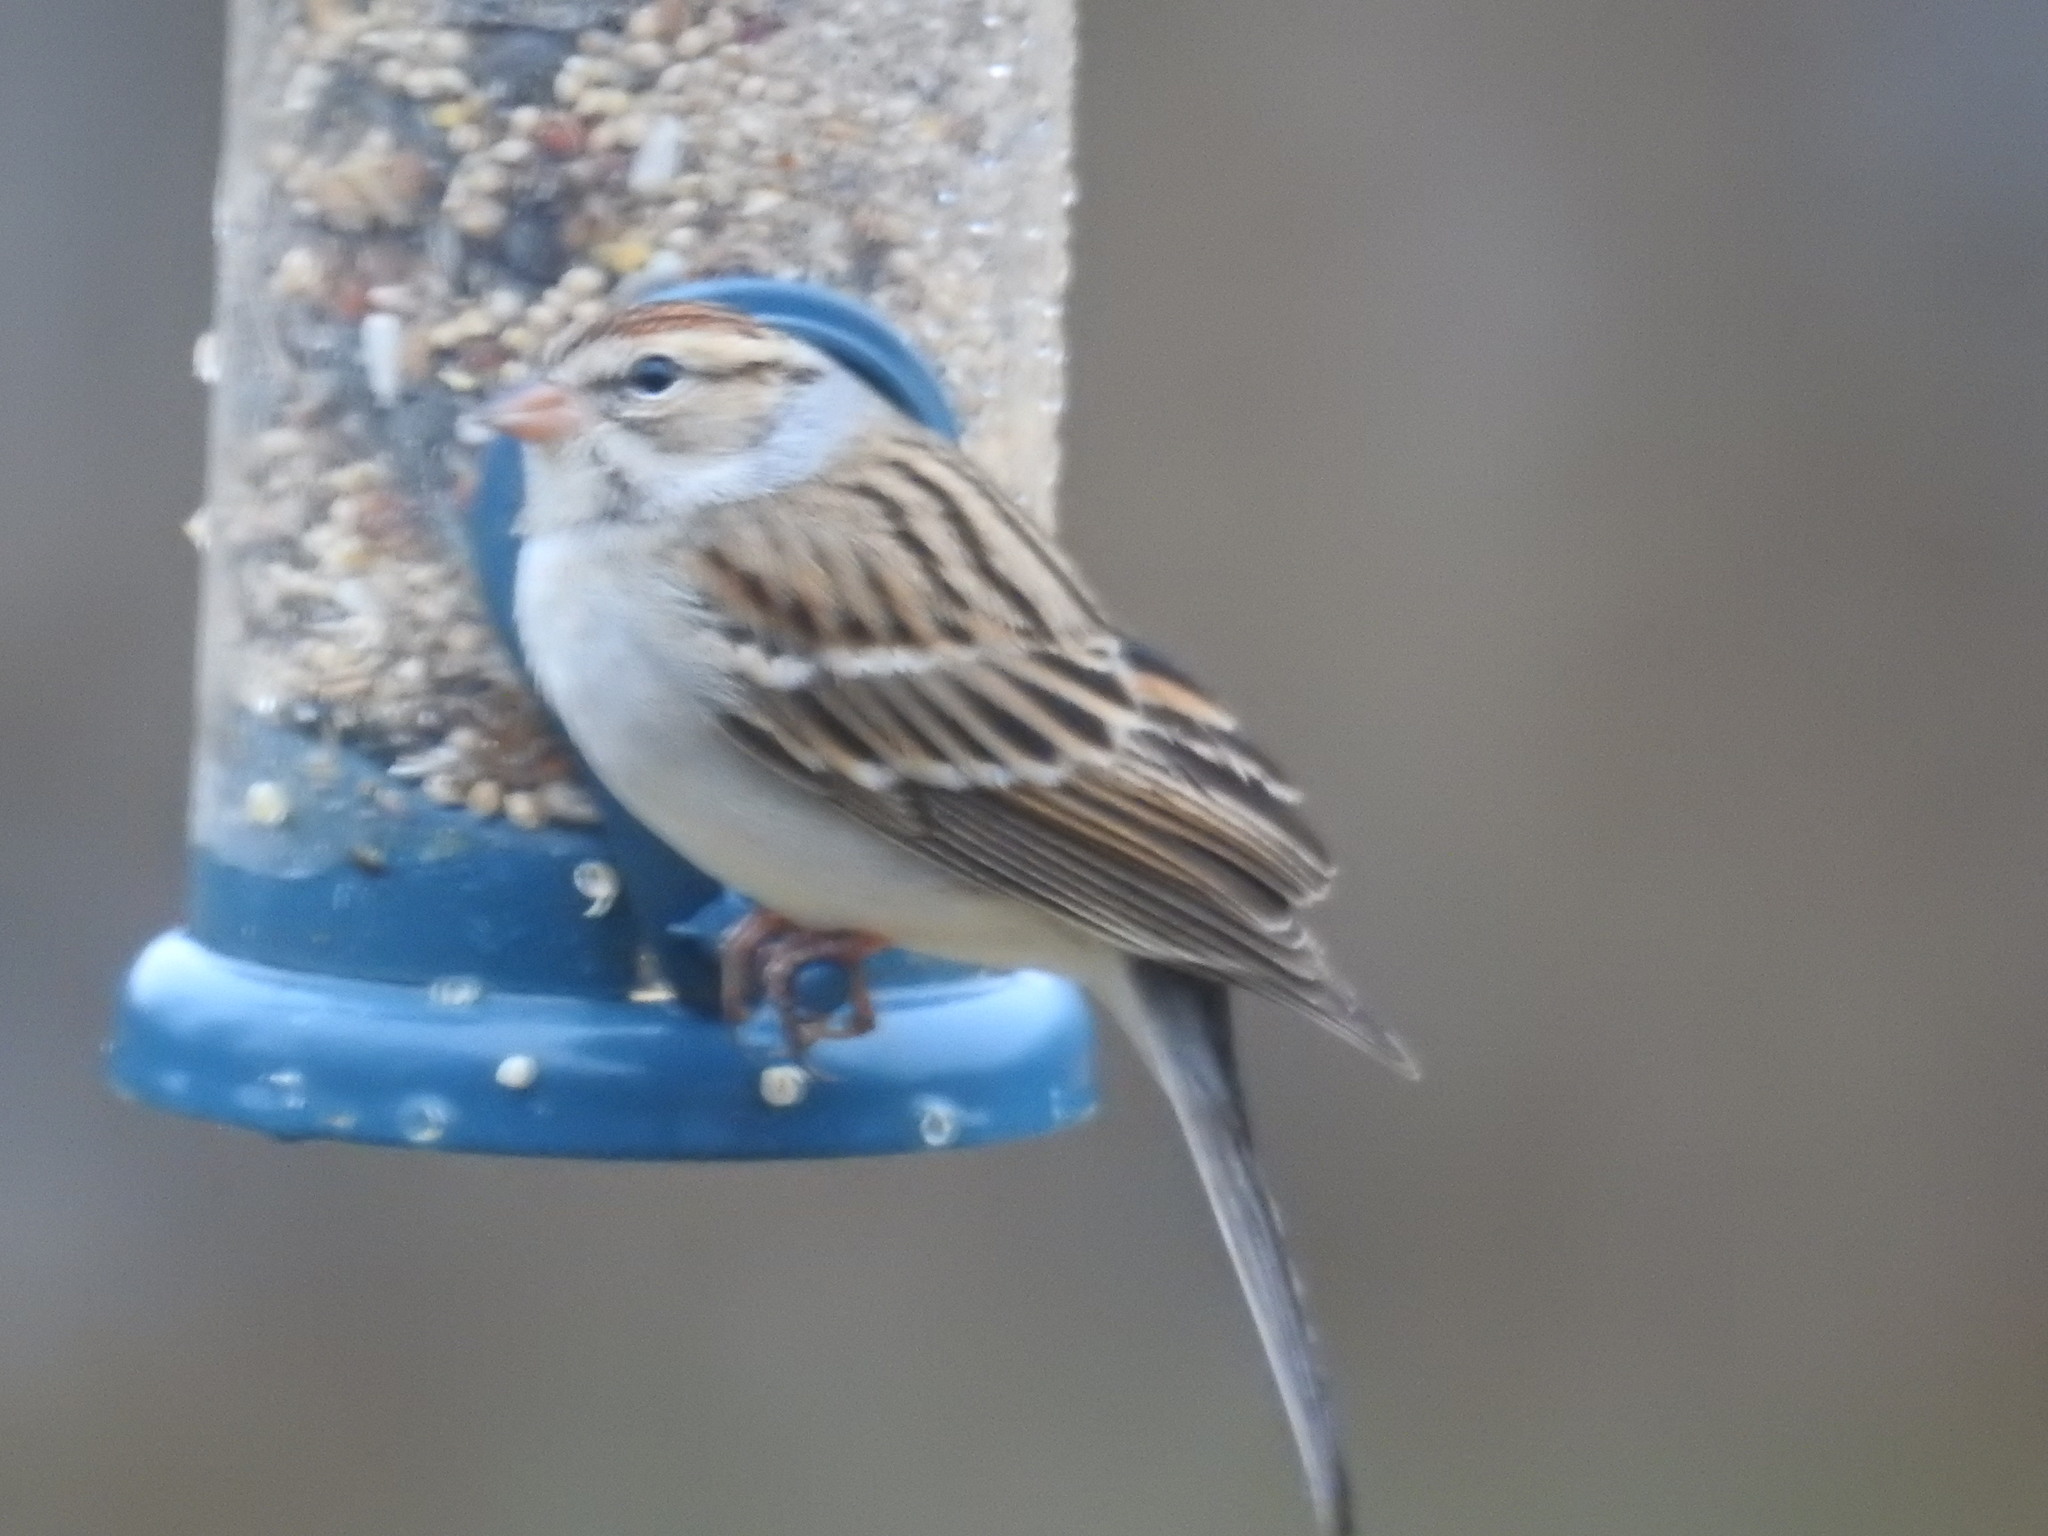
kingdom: Animalia
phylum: Chordata
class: Aves
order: Passeriformes
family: Passerellidae
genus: Spizella
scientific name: Spizella passerina
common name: Chipping sparrow
